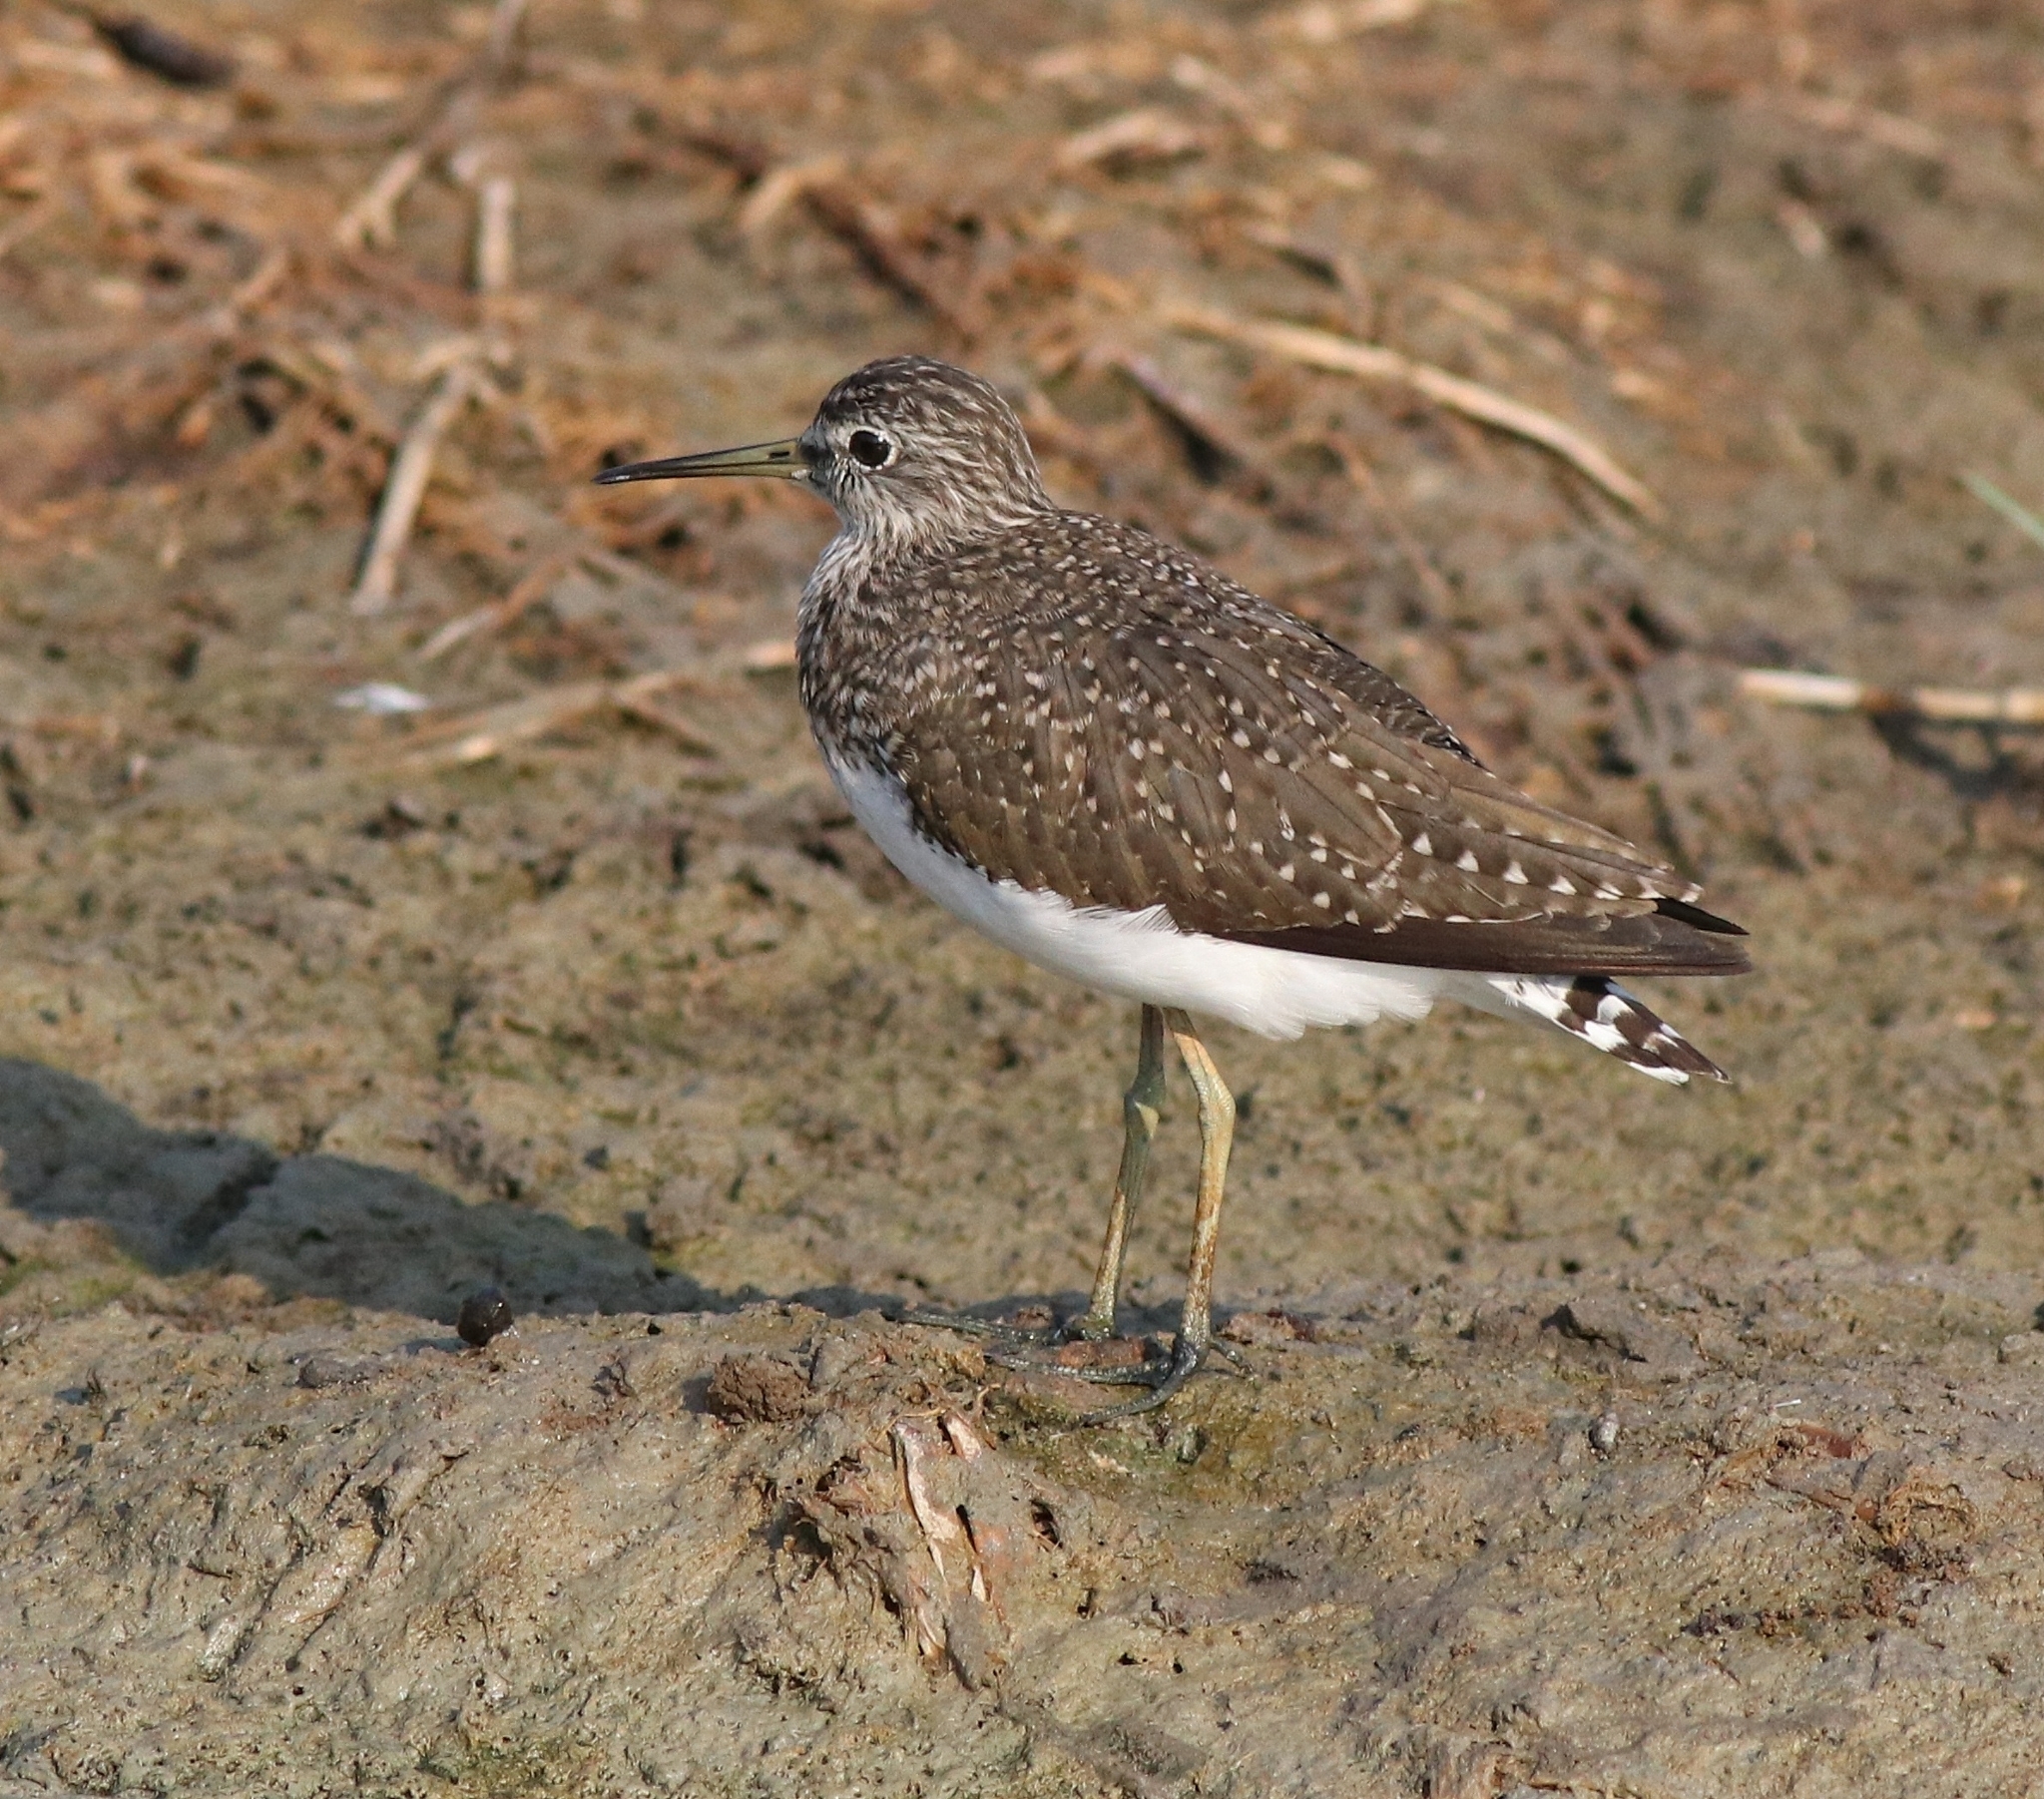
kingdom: Animalia
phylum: Chordata
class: Aves
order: Charadriiformes
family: Scolopacidae
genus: Tringa
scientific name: Tringa ochropus
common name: Green sandpiper
